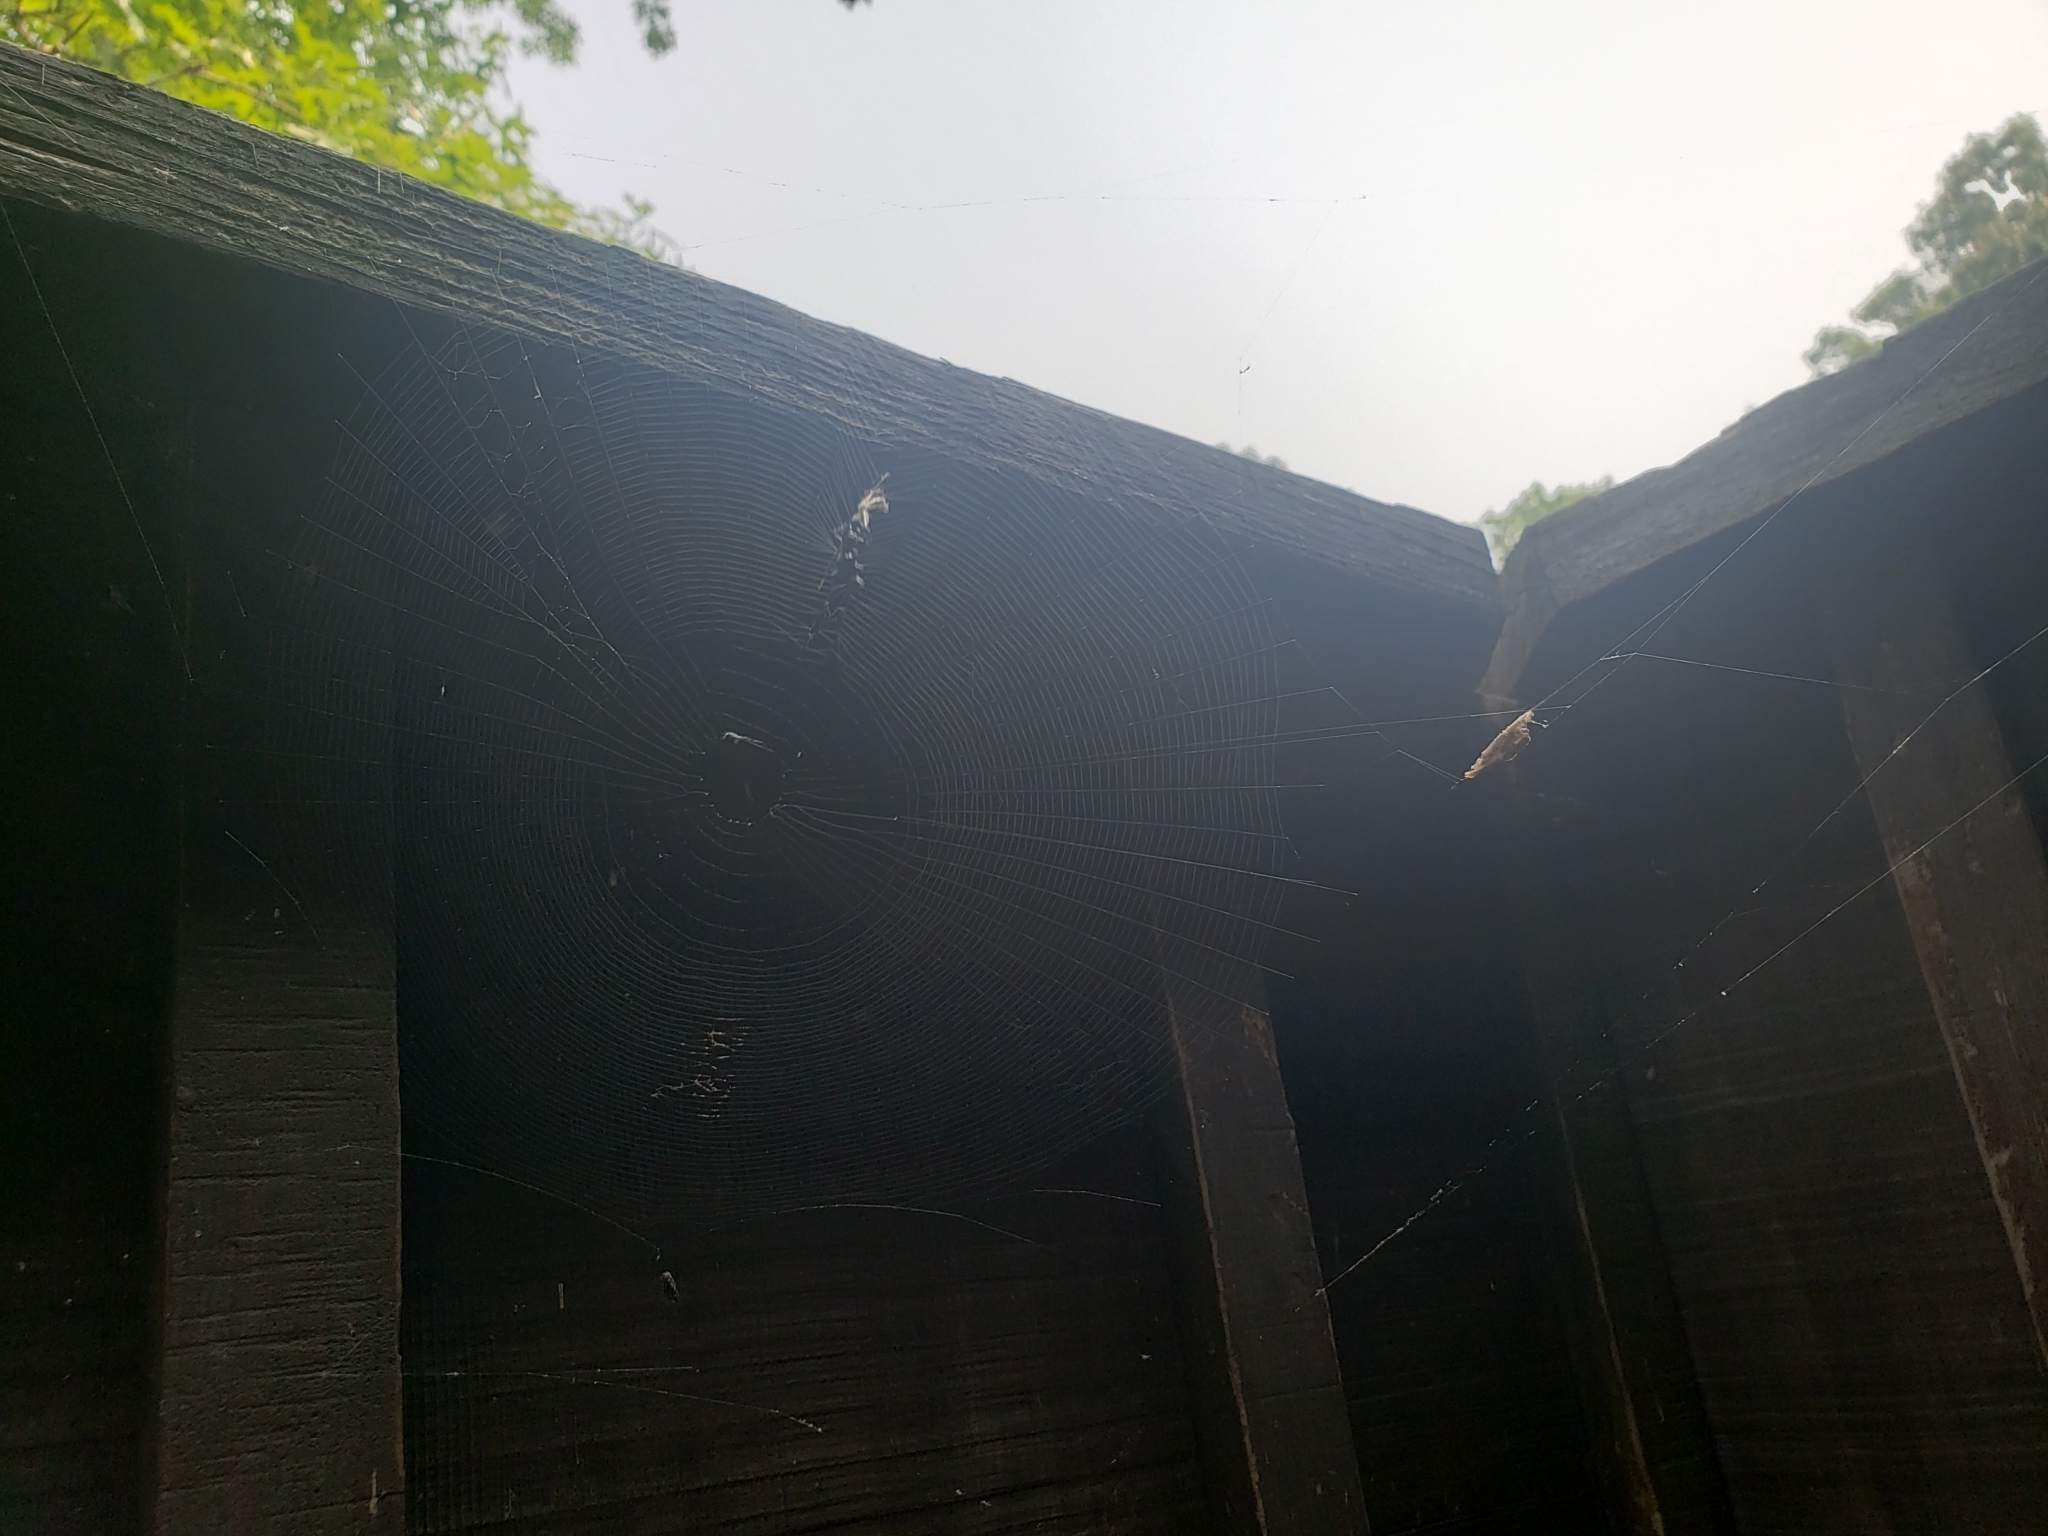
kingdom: Animalia
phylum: Arthropoda
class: Arachnida
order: Araneae
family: Araneidae
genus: Micrathena
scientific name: Micrathena gracilis
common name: Orb weavers
